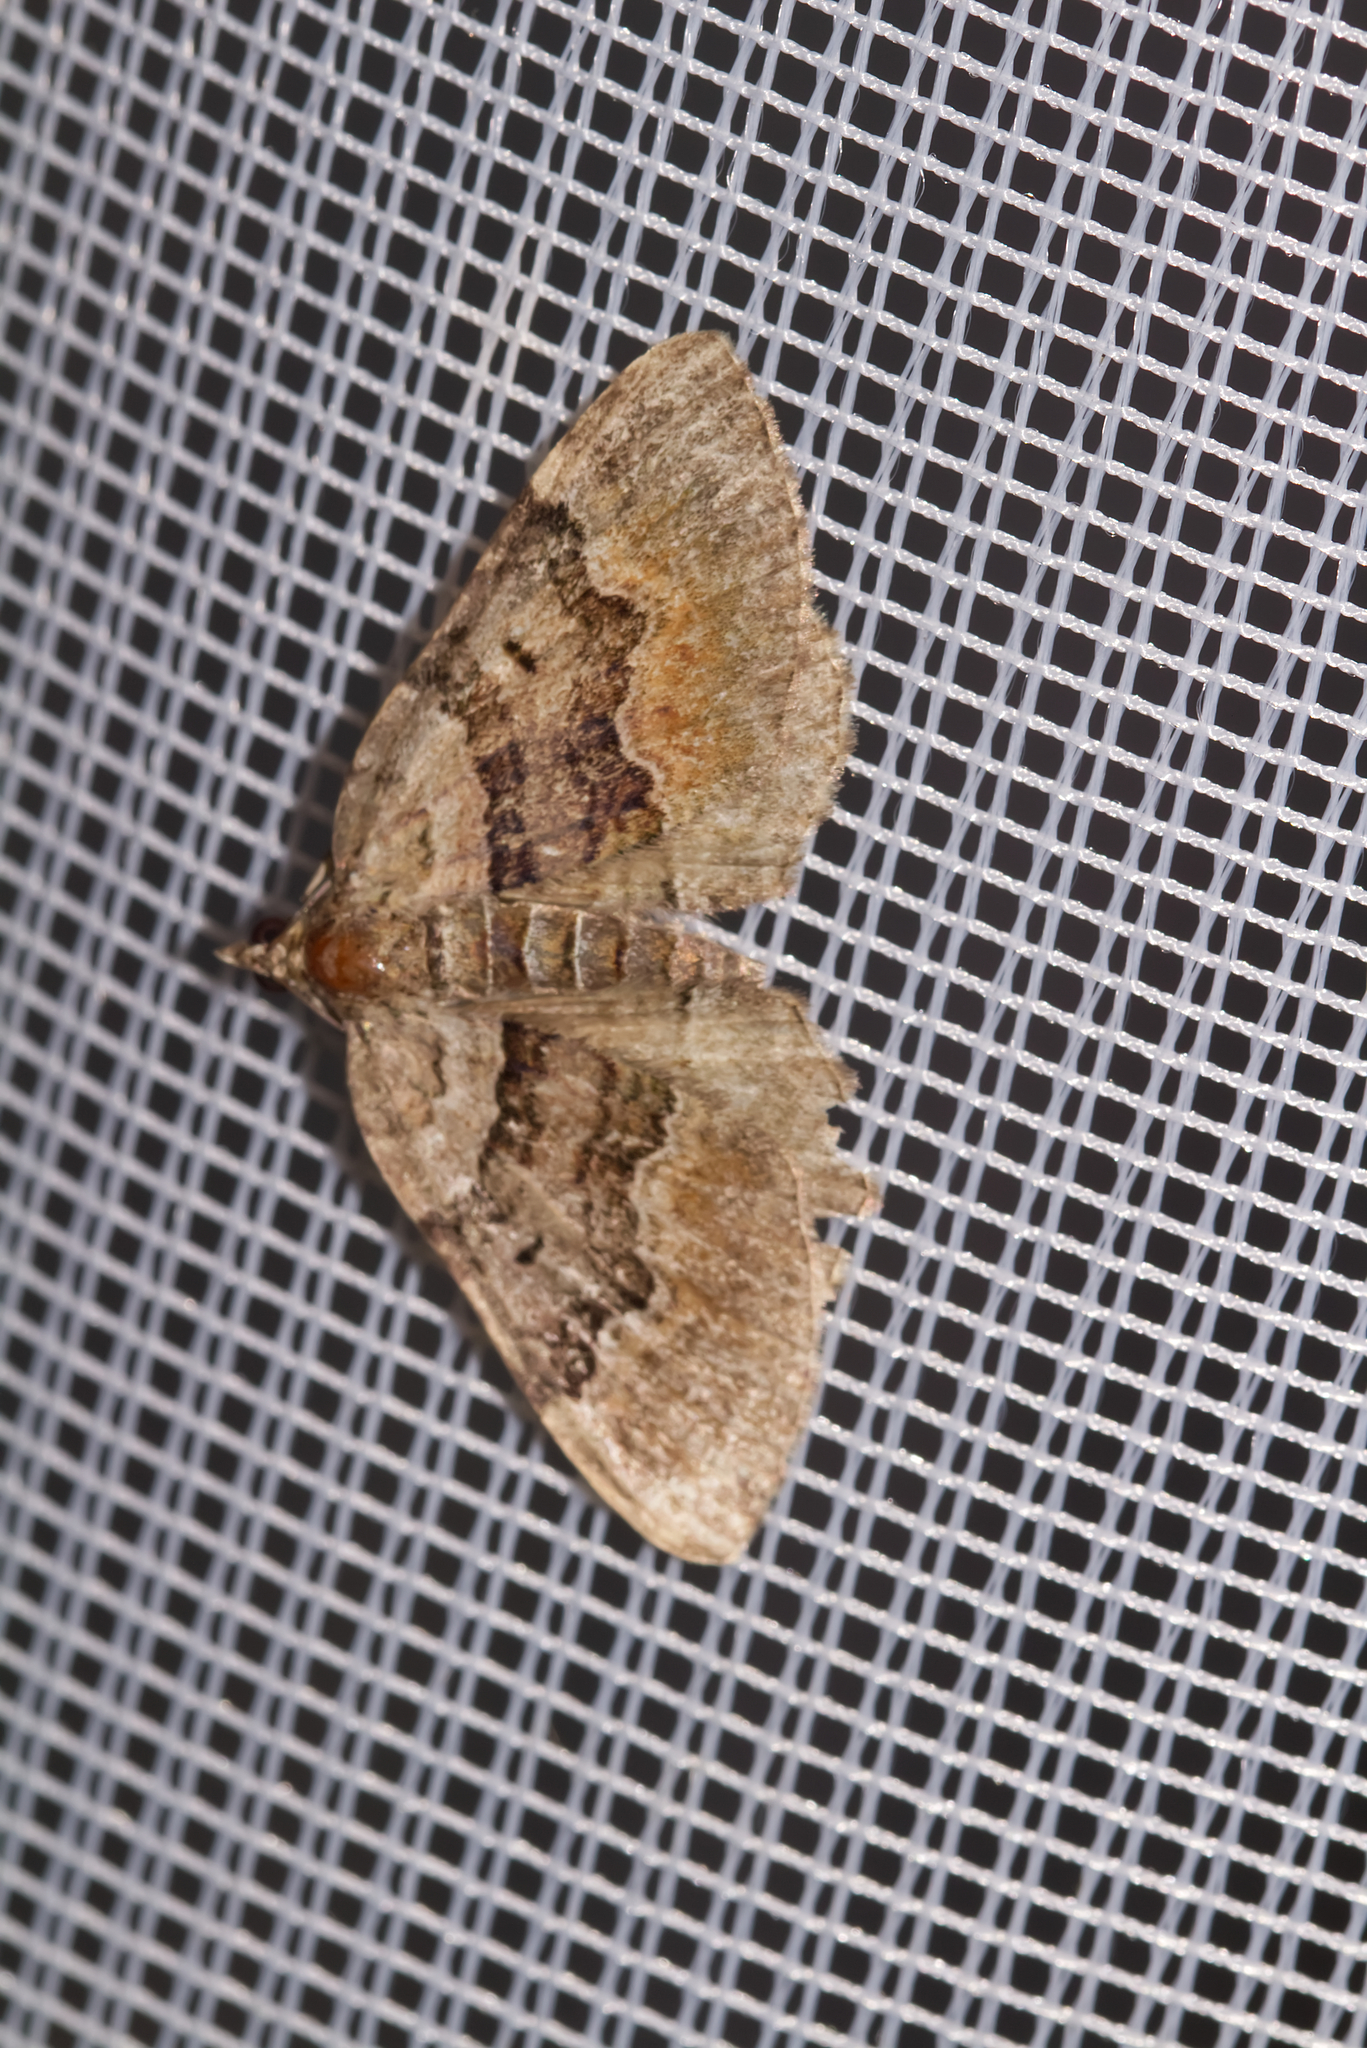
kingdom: Animalia
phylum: Arthropoda
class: Insecta
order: Lepidoptera
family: Geometridae
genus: Xanthorhoe
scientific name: Xanthorhoe quadrifasiata
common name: Large twin-spot carpet
